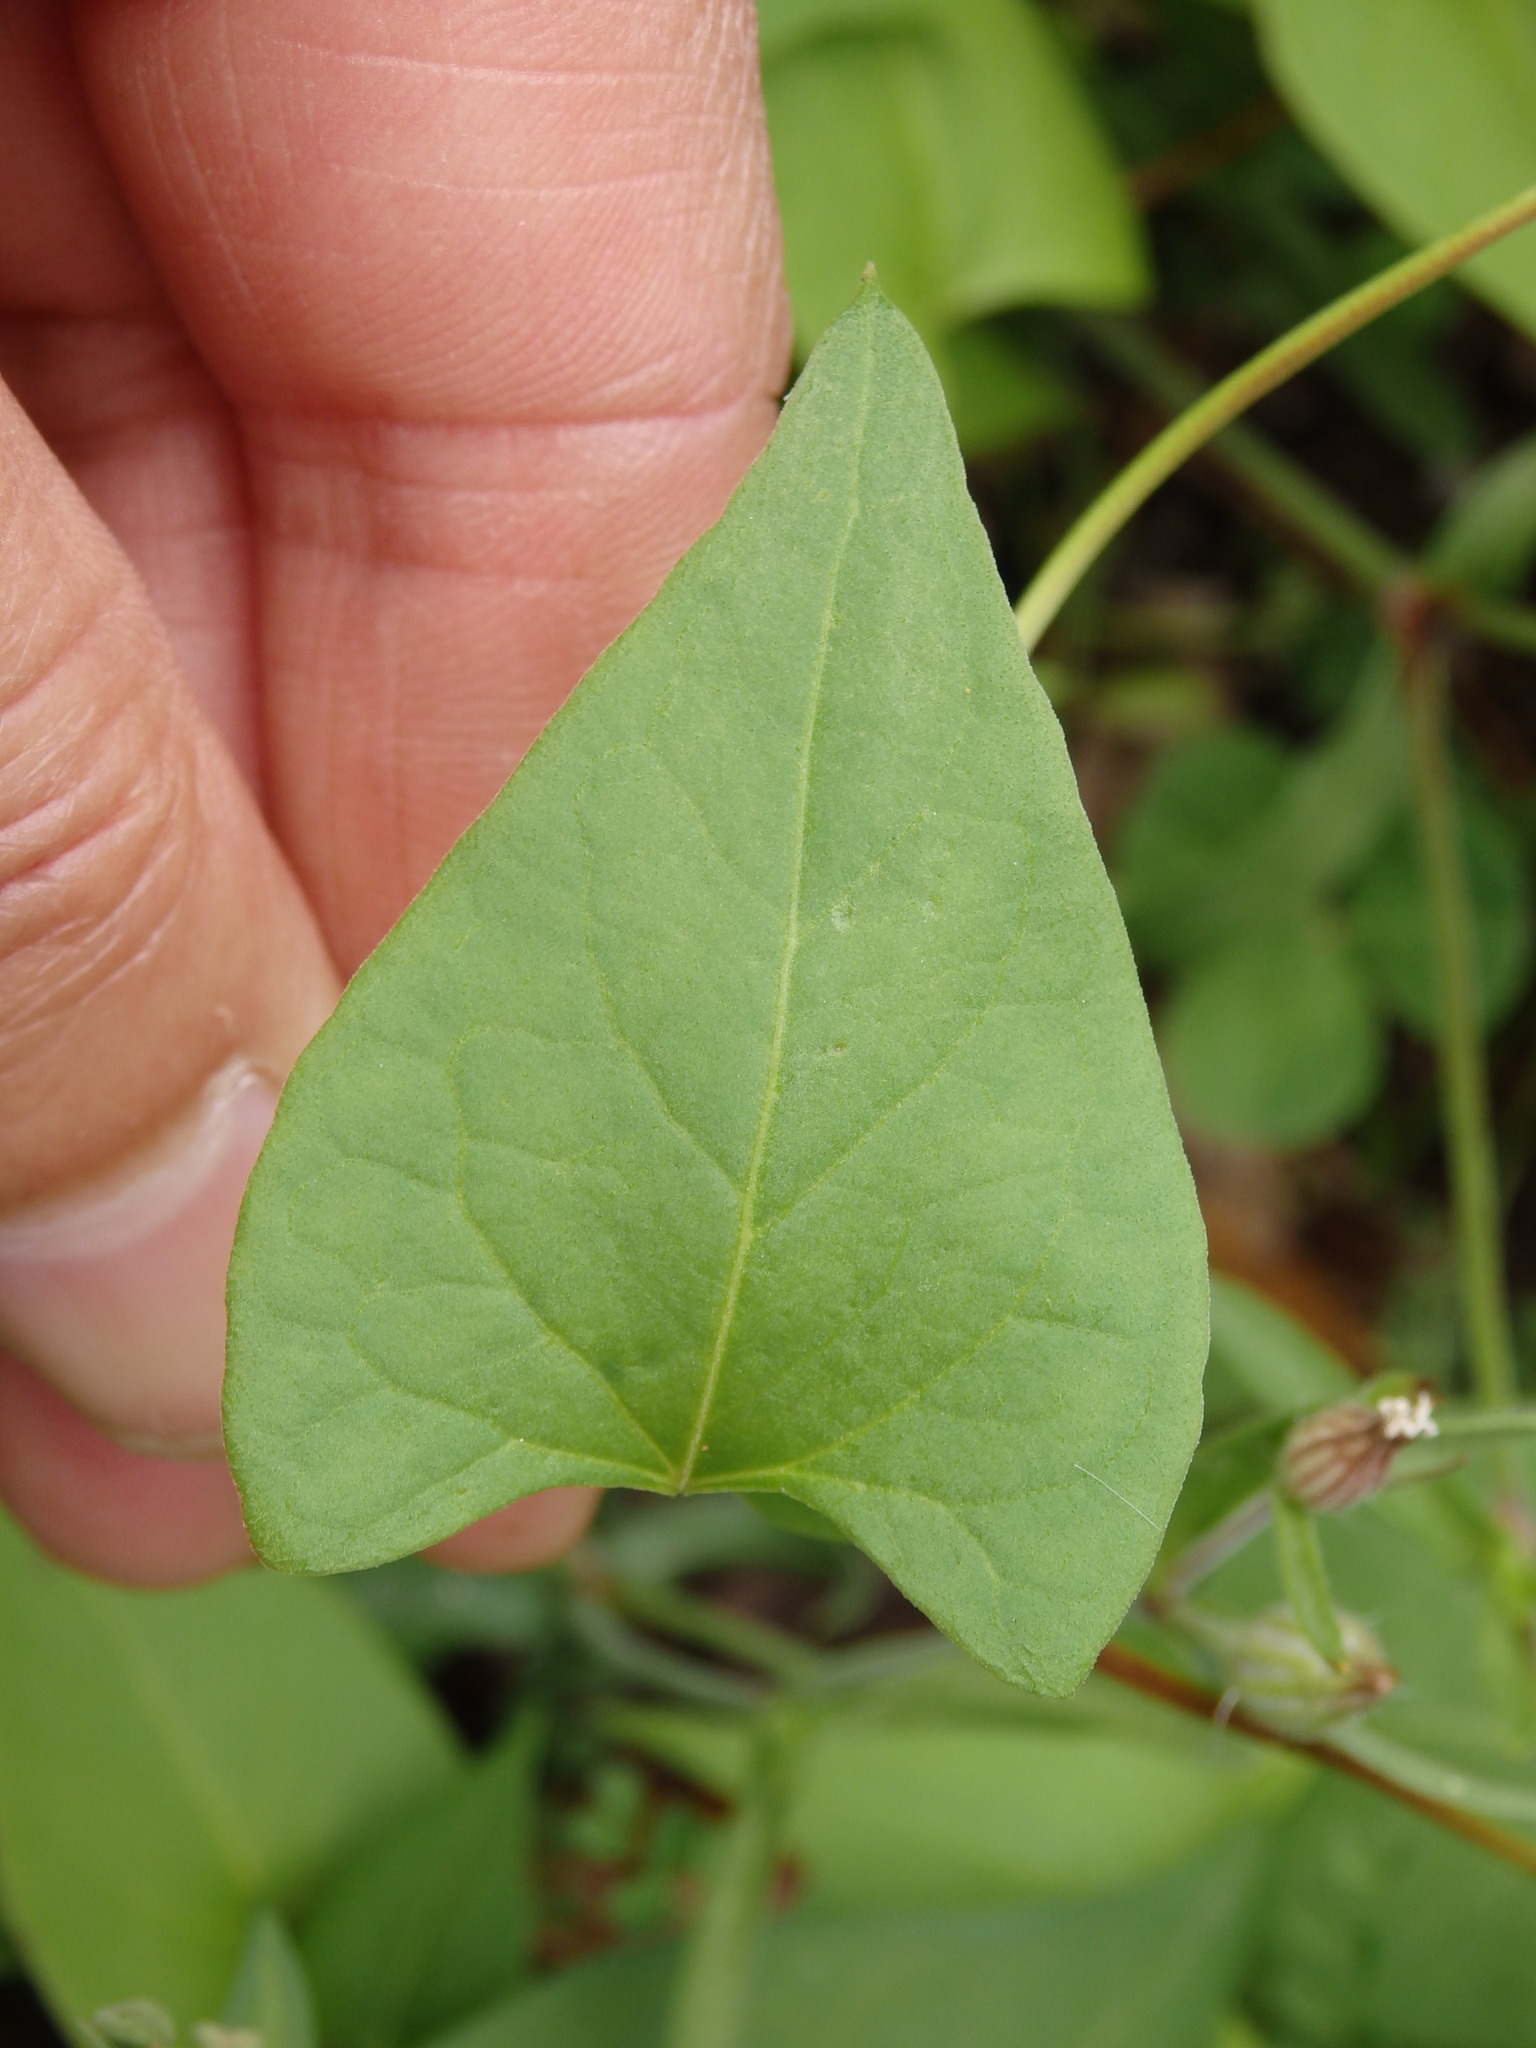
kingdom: Plantae
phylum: Tracheophyta
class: Magnoliopsida
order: Caryophyllales
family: Polygonaceae
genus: Fallopia
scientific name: Fallopia convolvulus
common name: Black bindweed
